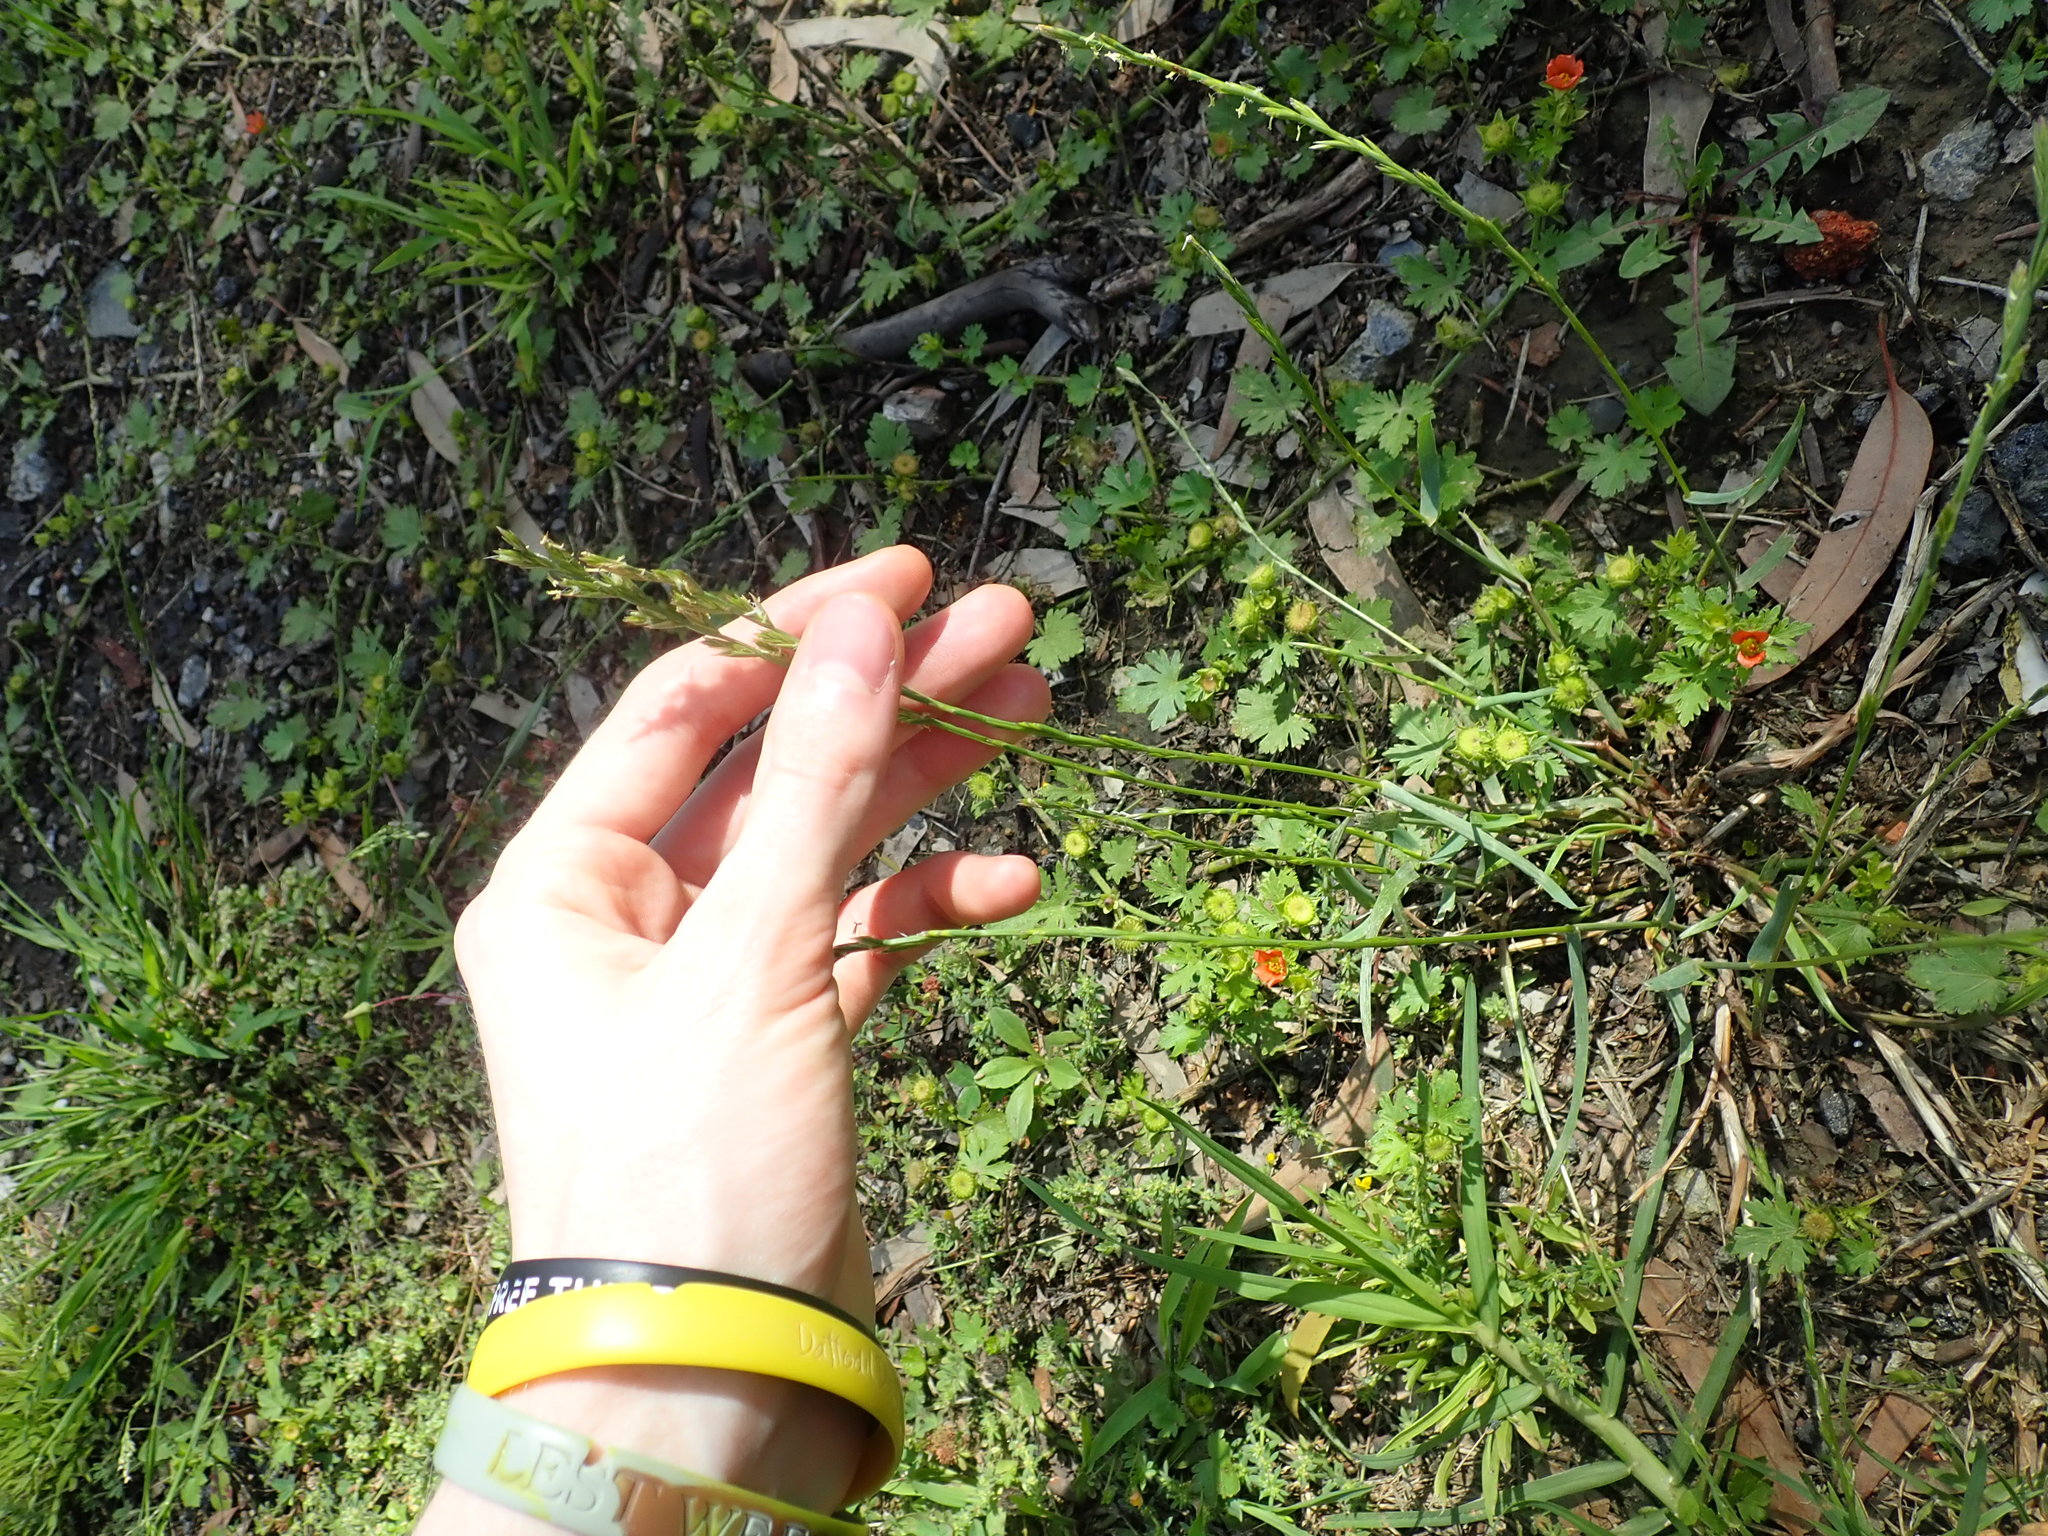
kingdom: Plantae
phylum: Tracheophyta
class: Liliopsida
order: Poales
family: Poaceae
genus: Lolium
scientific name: Lolium perenne
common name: Perennial ryegrass
